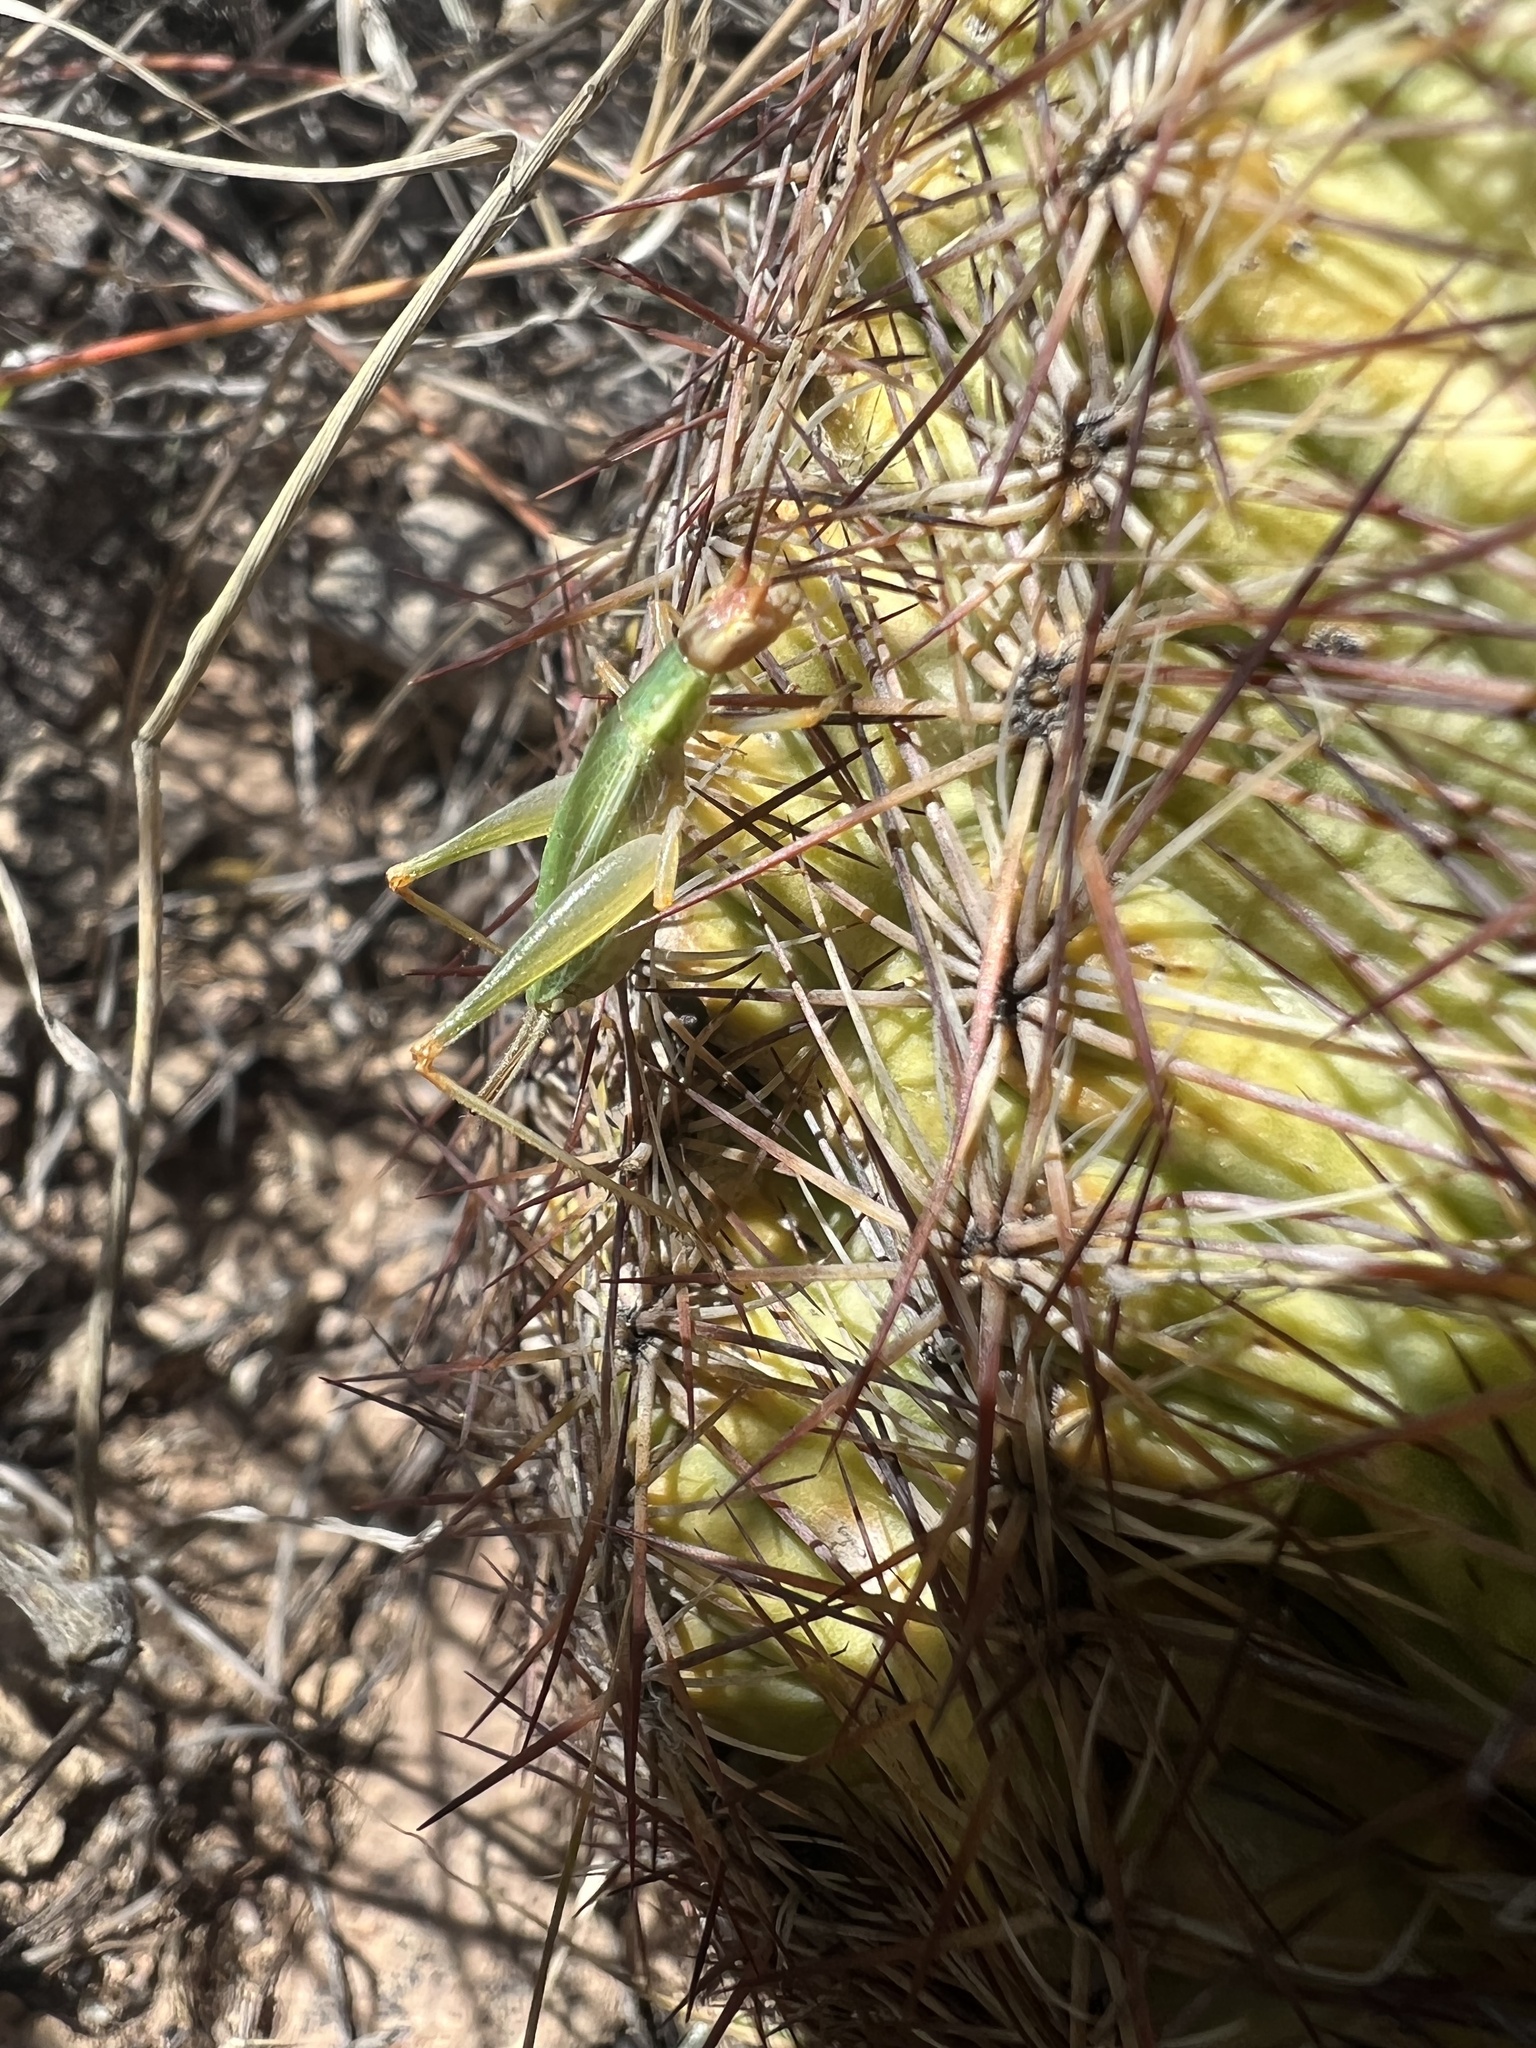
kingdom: Animalia
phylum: Arthropoda
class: Insecta
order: Orthoptera
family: Gryllidae
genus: Oecanthus
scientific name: Oecanthus californicus
